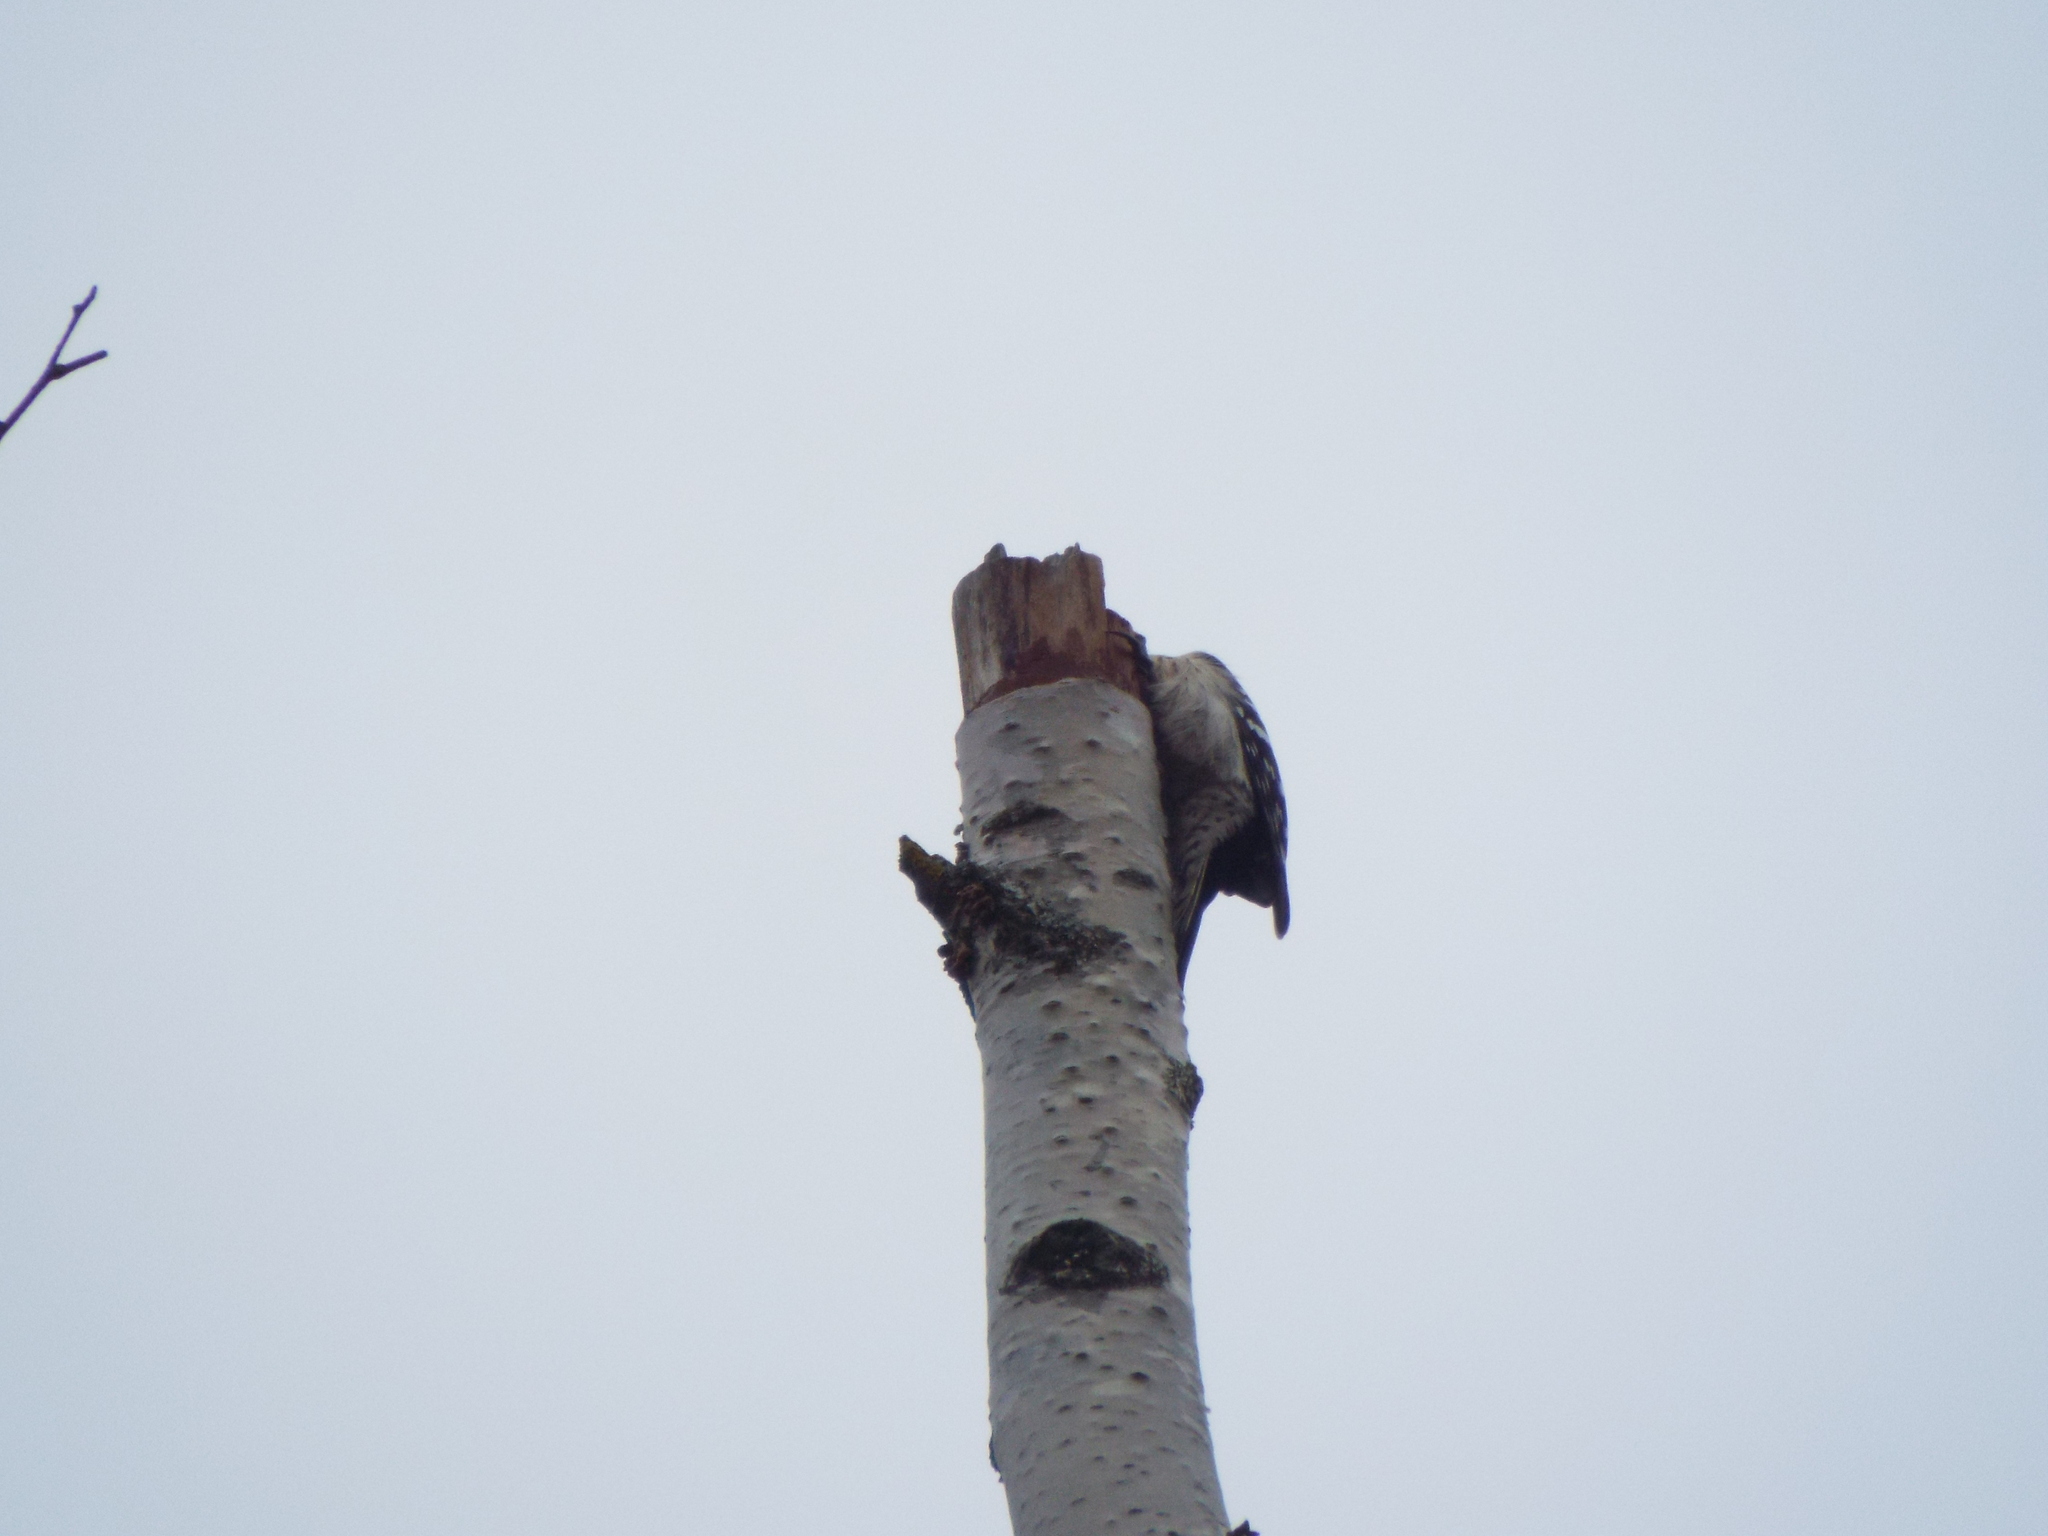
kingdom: Animalia
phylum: Chordata
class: Aves
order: Piciformes
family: Picidae
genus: Dryobates
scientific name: Dryobates minor
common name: Lesser spotted woodpecker
